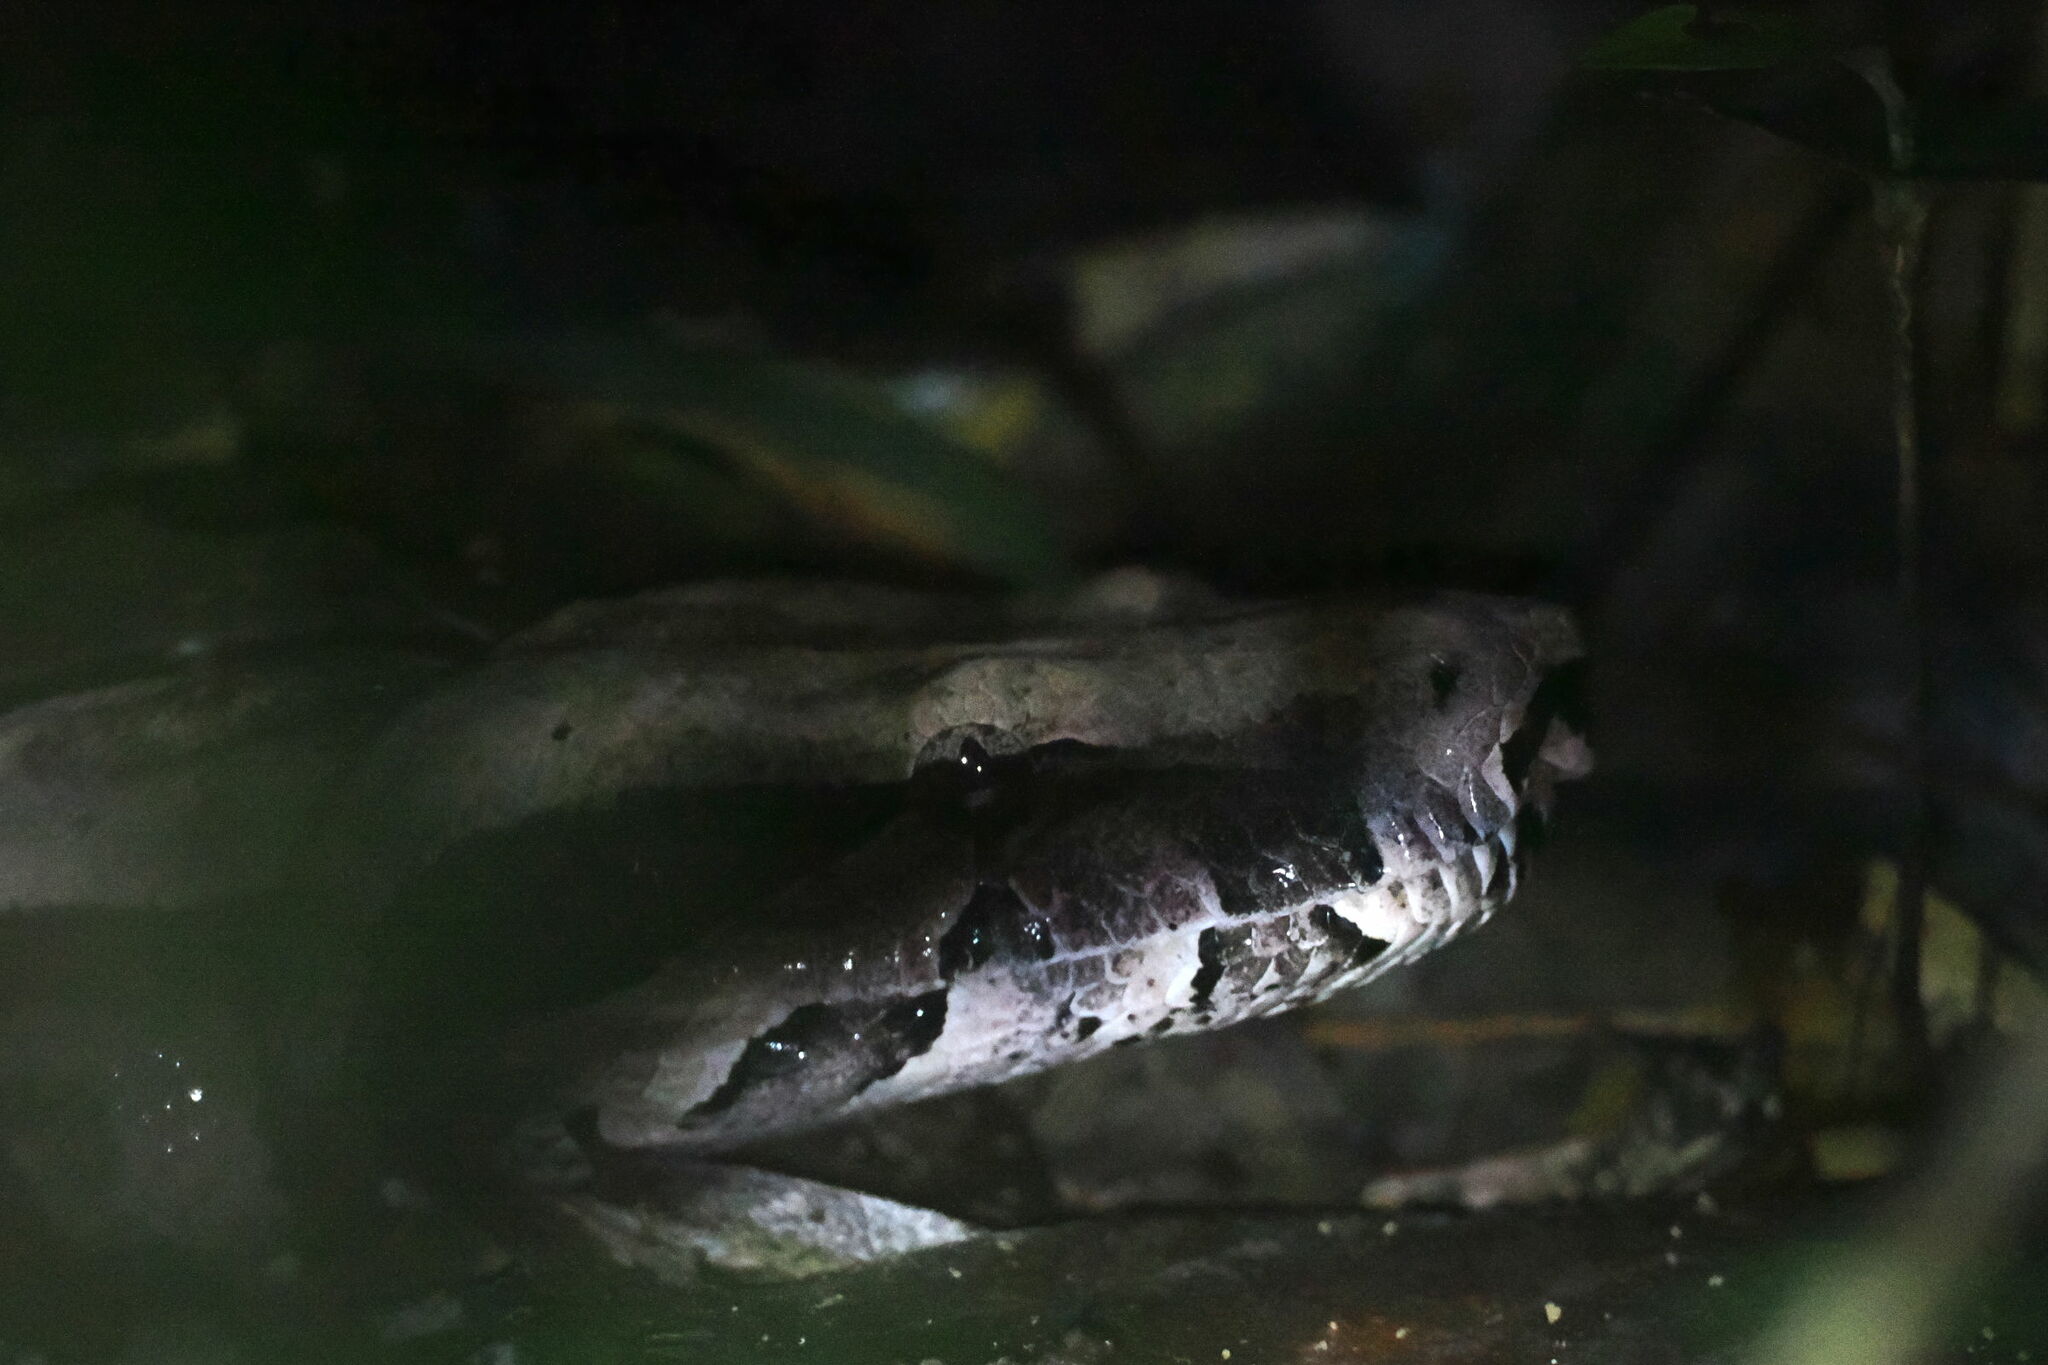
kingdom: Animalia
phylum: Chordata
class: Squamata
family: Boidae
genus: Boa
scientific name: Boa constrictor
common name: Boa constrictor
